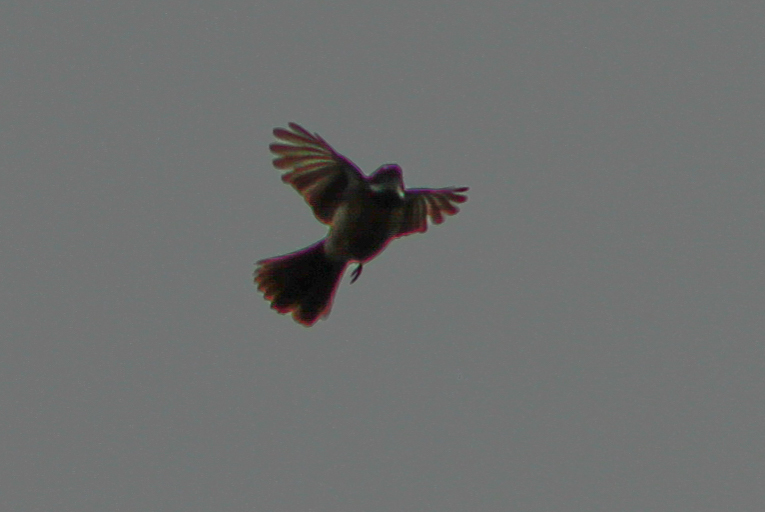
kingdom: Animalia
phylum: Chordata
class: Aves
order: Passeriformes
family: Rhipiduridae
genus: Rhipidura
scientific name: Rhipidura albiscapa
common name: Grey fantail
